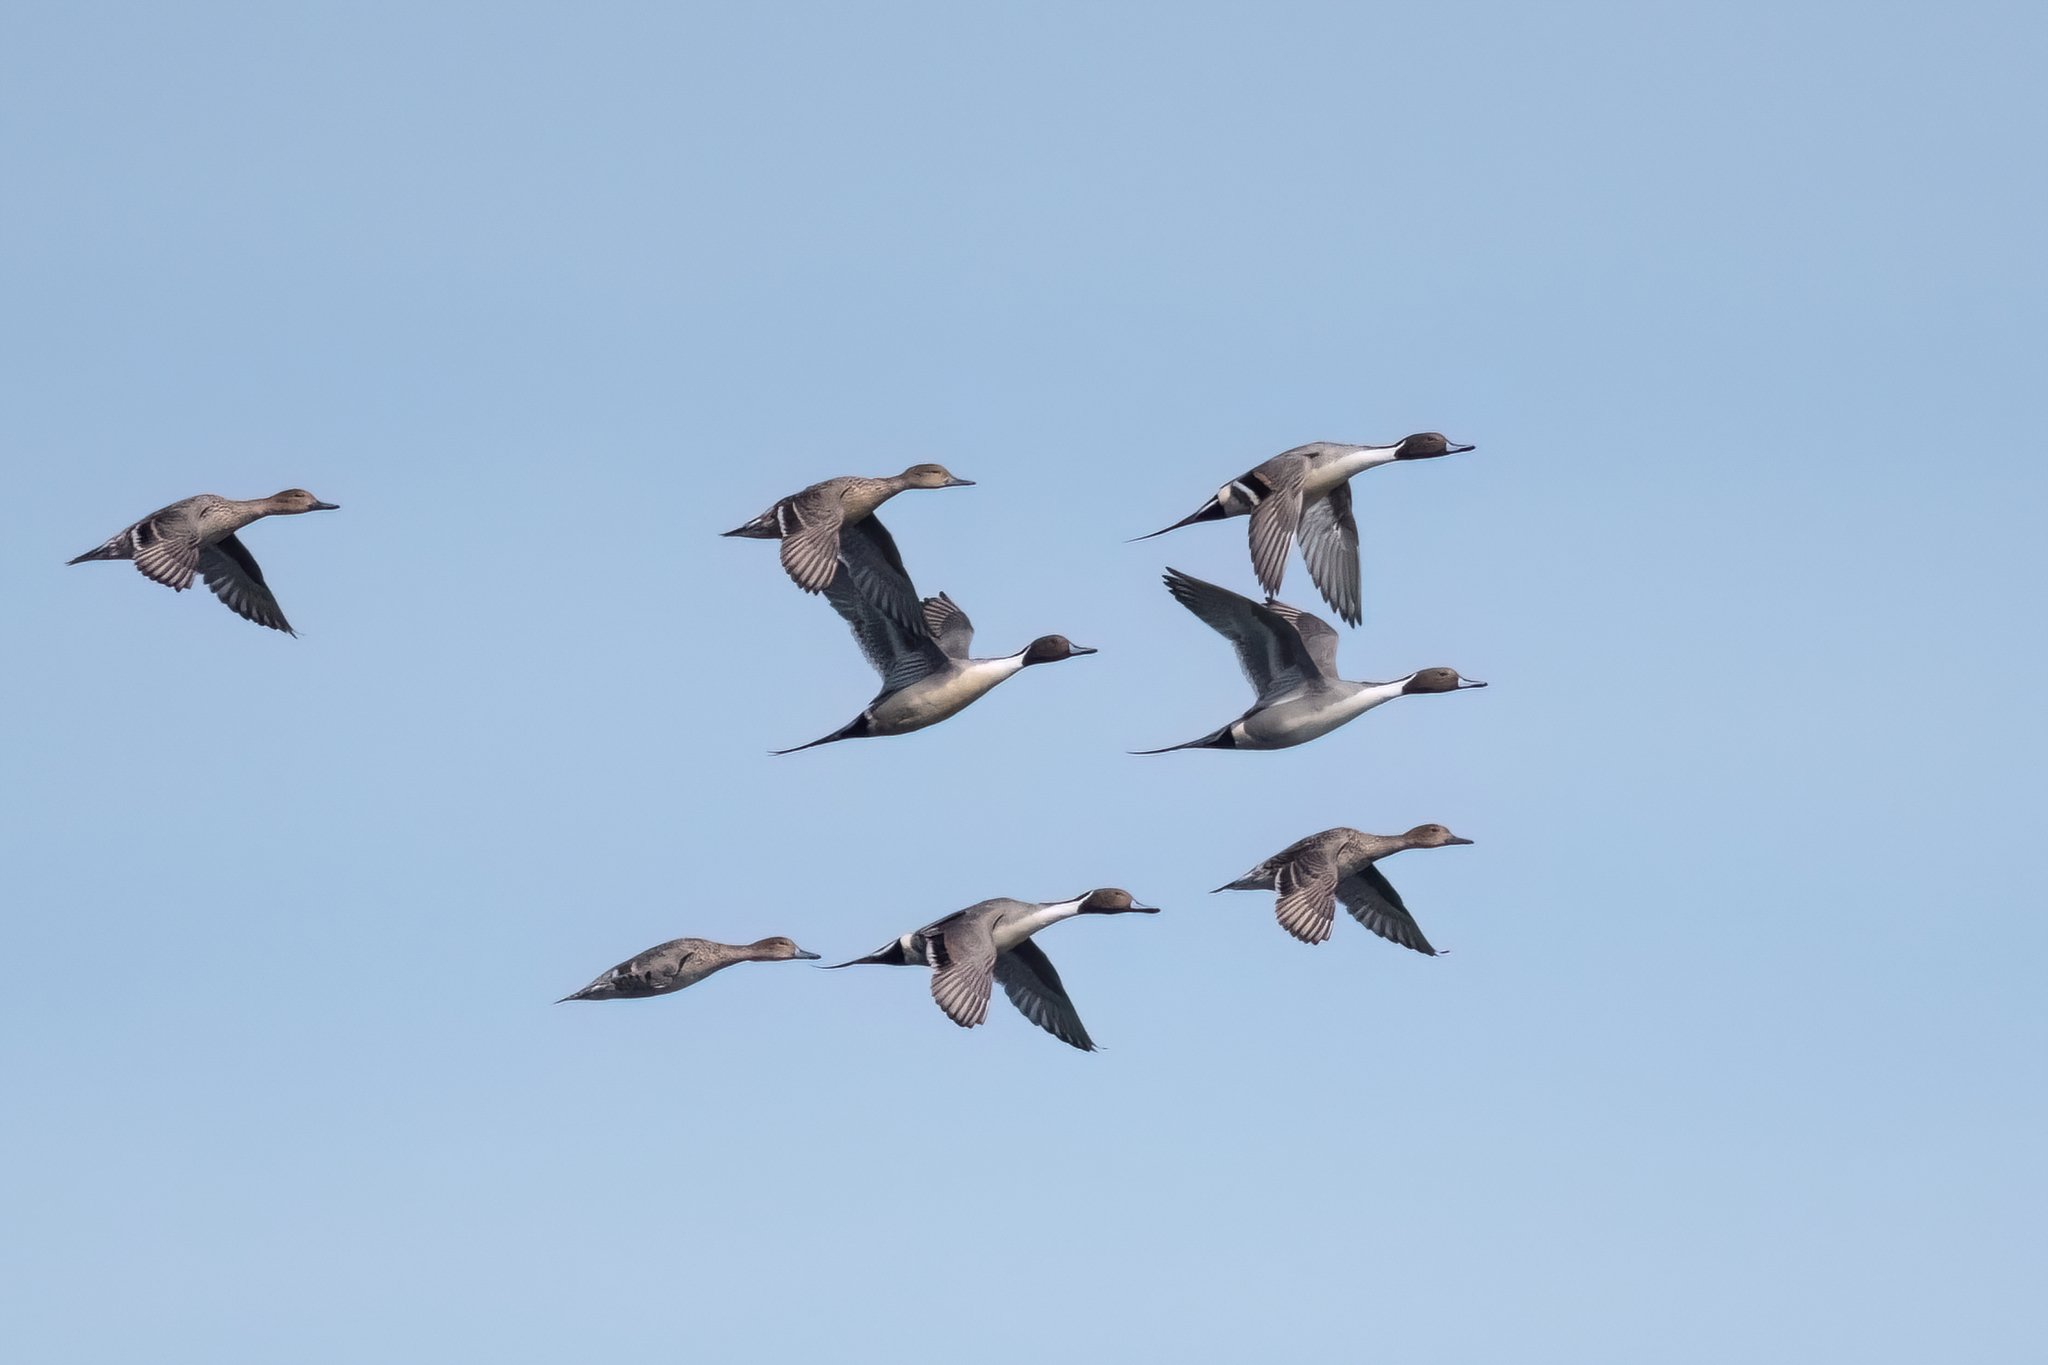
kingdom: Animalia
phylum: Chordata
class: Aves
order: Anseriformes
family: Anatidae
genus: Anas
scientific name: Anas acuta
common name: Northern pintail
